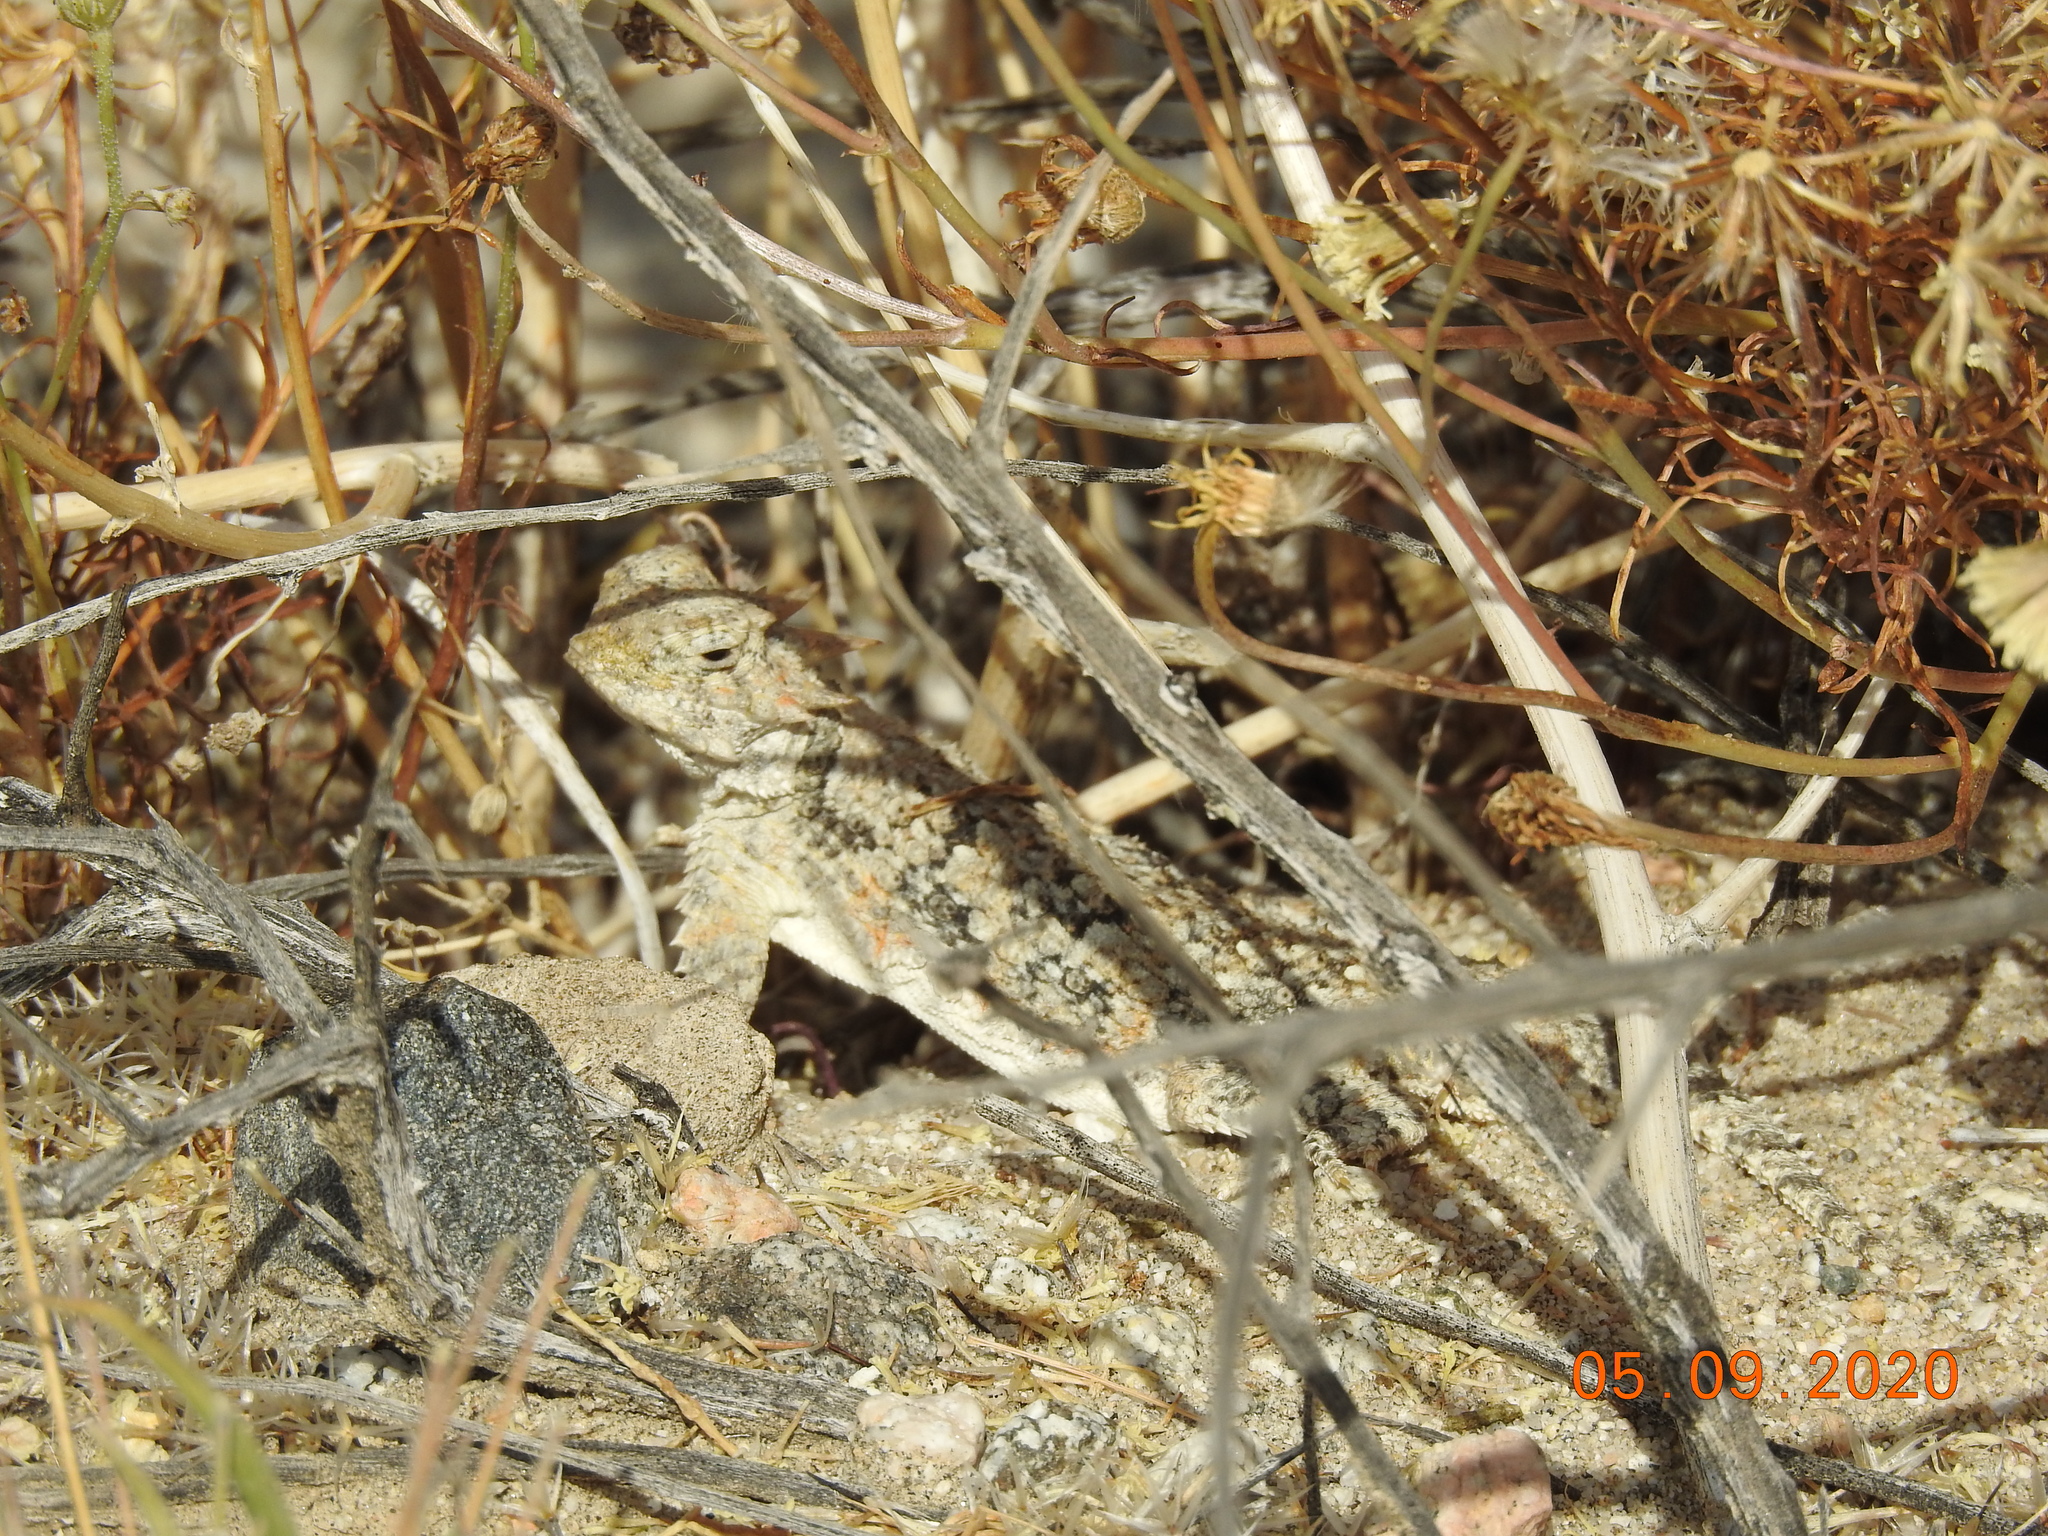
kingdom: Animalia
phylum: Chordata
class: Squamata
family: Phrynosomatidae
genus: Phrynosoma
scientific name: Phrynosoma platyrhinos
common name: Desert horned lizard
